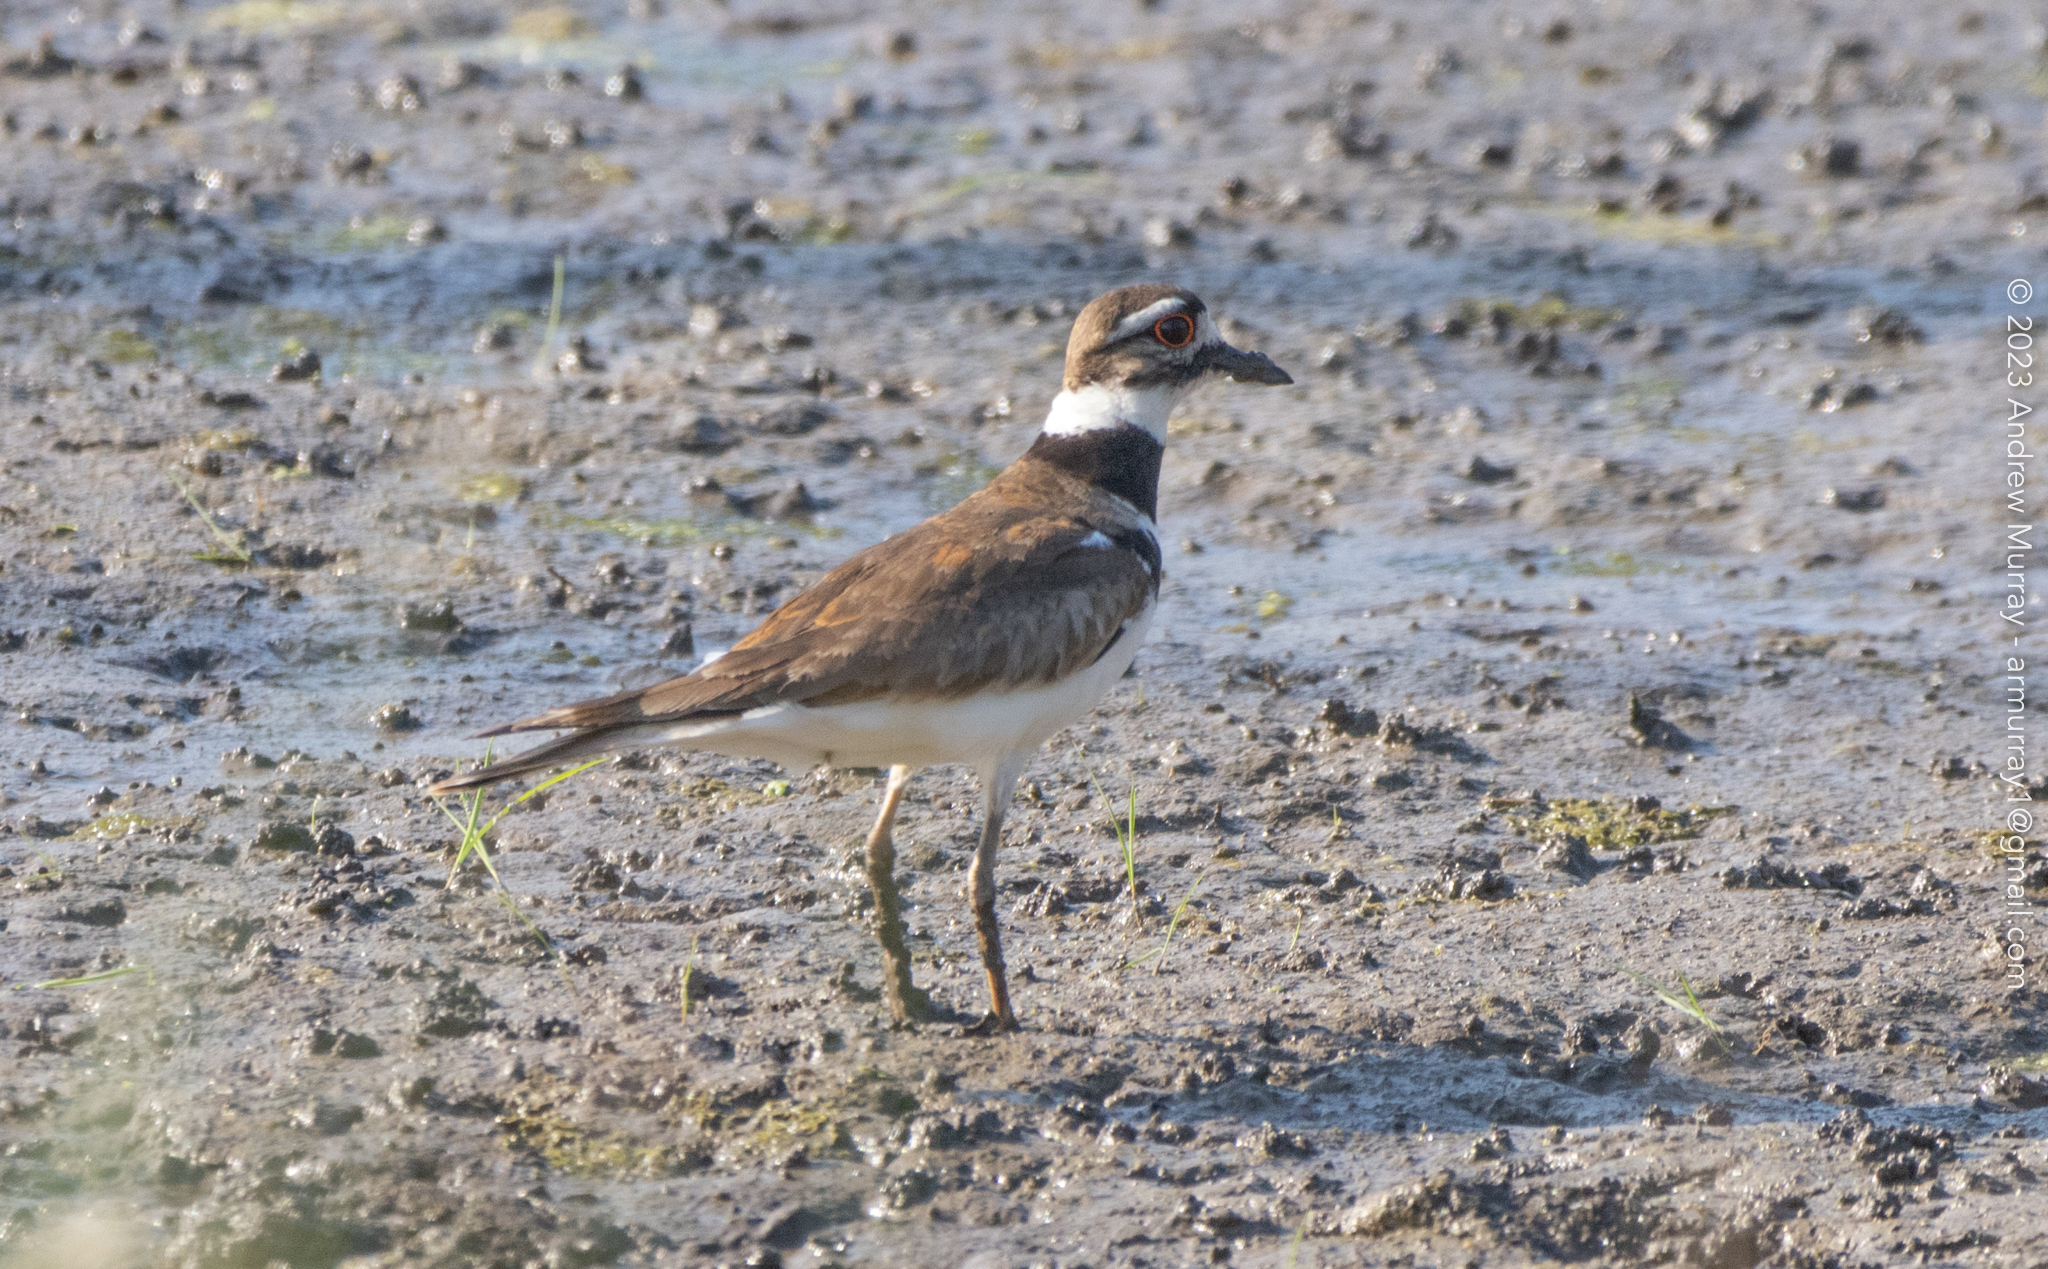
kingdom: Animalia
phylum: Chordata
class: Aves
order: Charadriiformes
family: Charadriidae
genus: Charadrius
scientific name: Charadrius vociferus
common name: Killdeer
